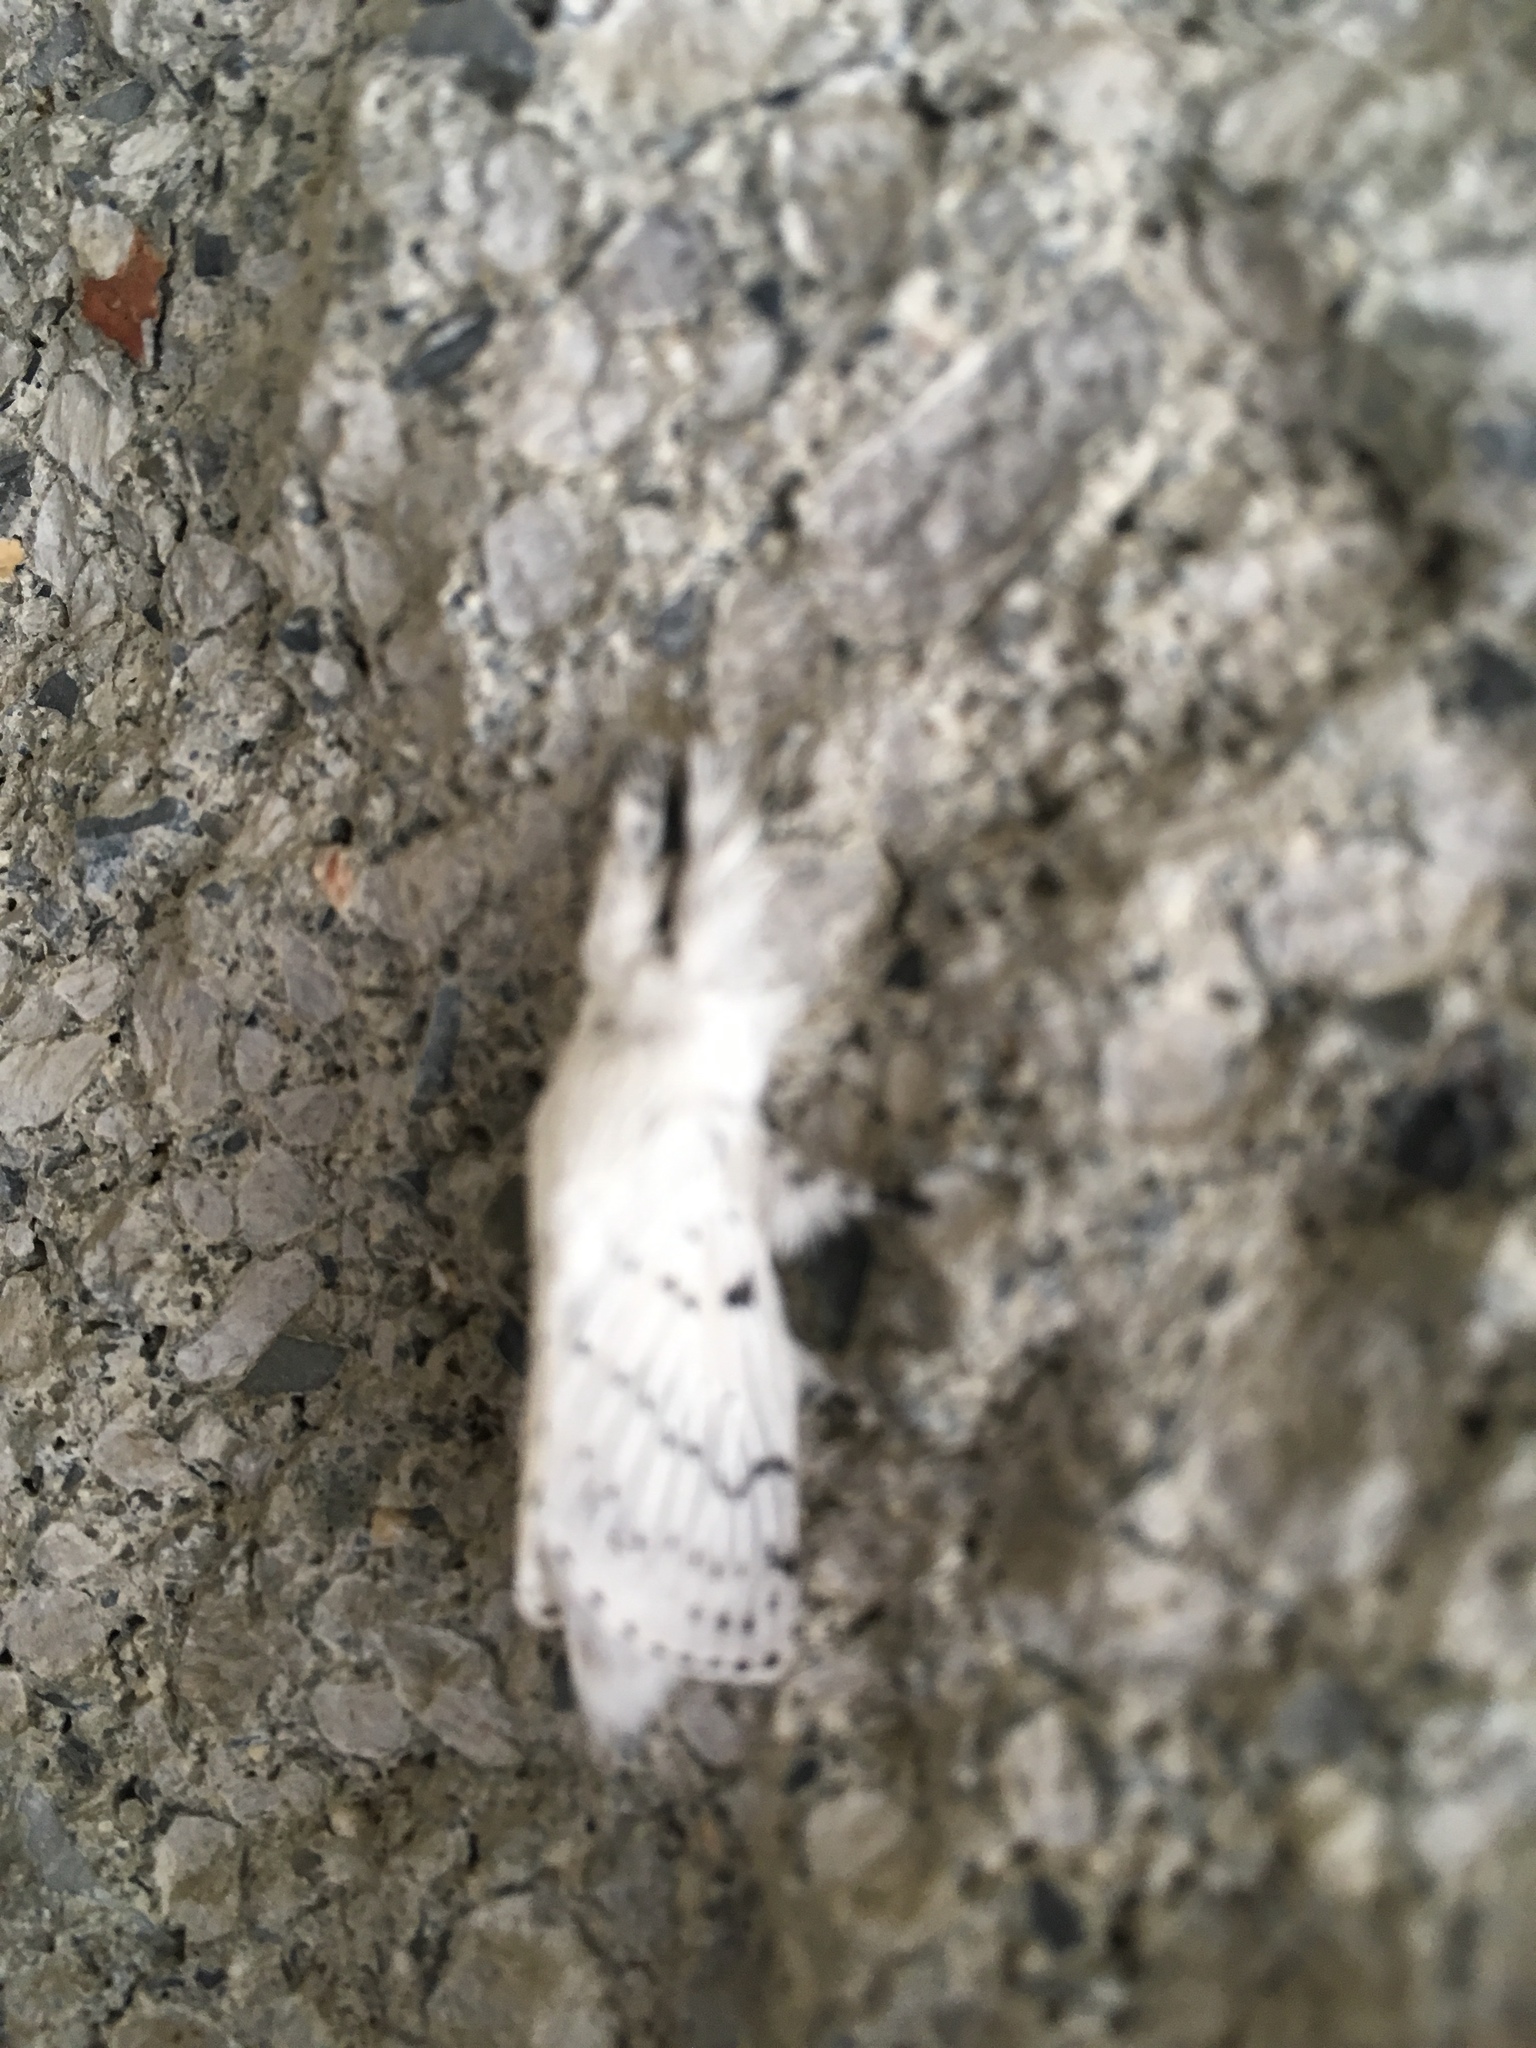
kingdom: Animalia
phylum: Arthropoda
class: Insecta
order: Lepidoptera
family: Lasiocampidae
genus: Artace
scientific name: Artace cribrarius
